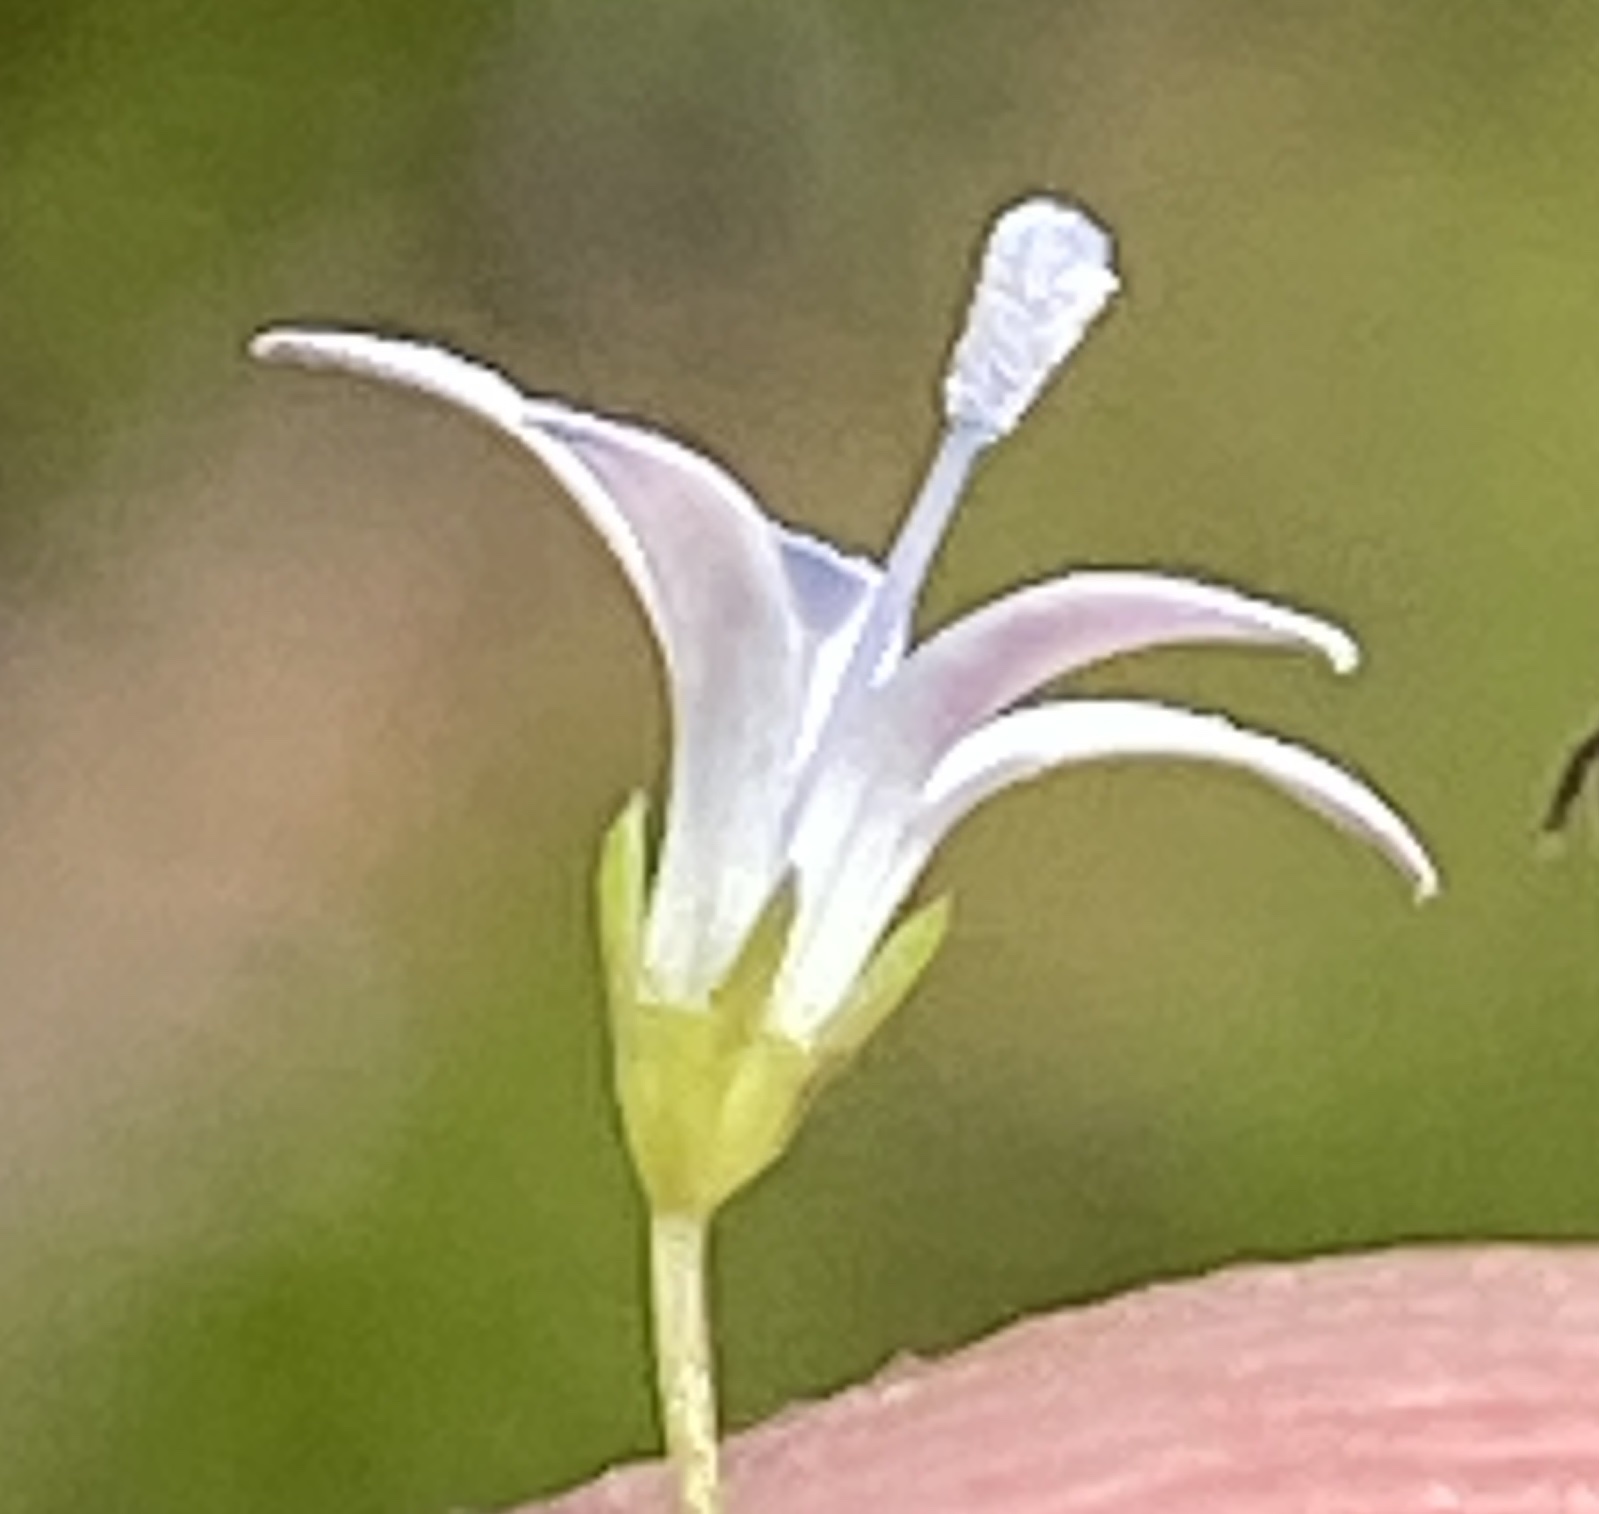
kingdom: Plantae
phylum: Tracheophyta
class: Magnoliopsida
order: Asterales
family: Campanulaceae
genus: Wahlenbergia
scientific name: Wahlenbergia loddigesii
